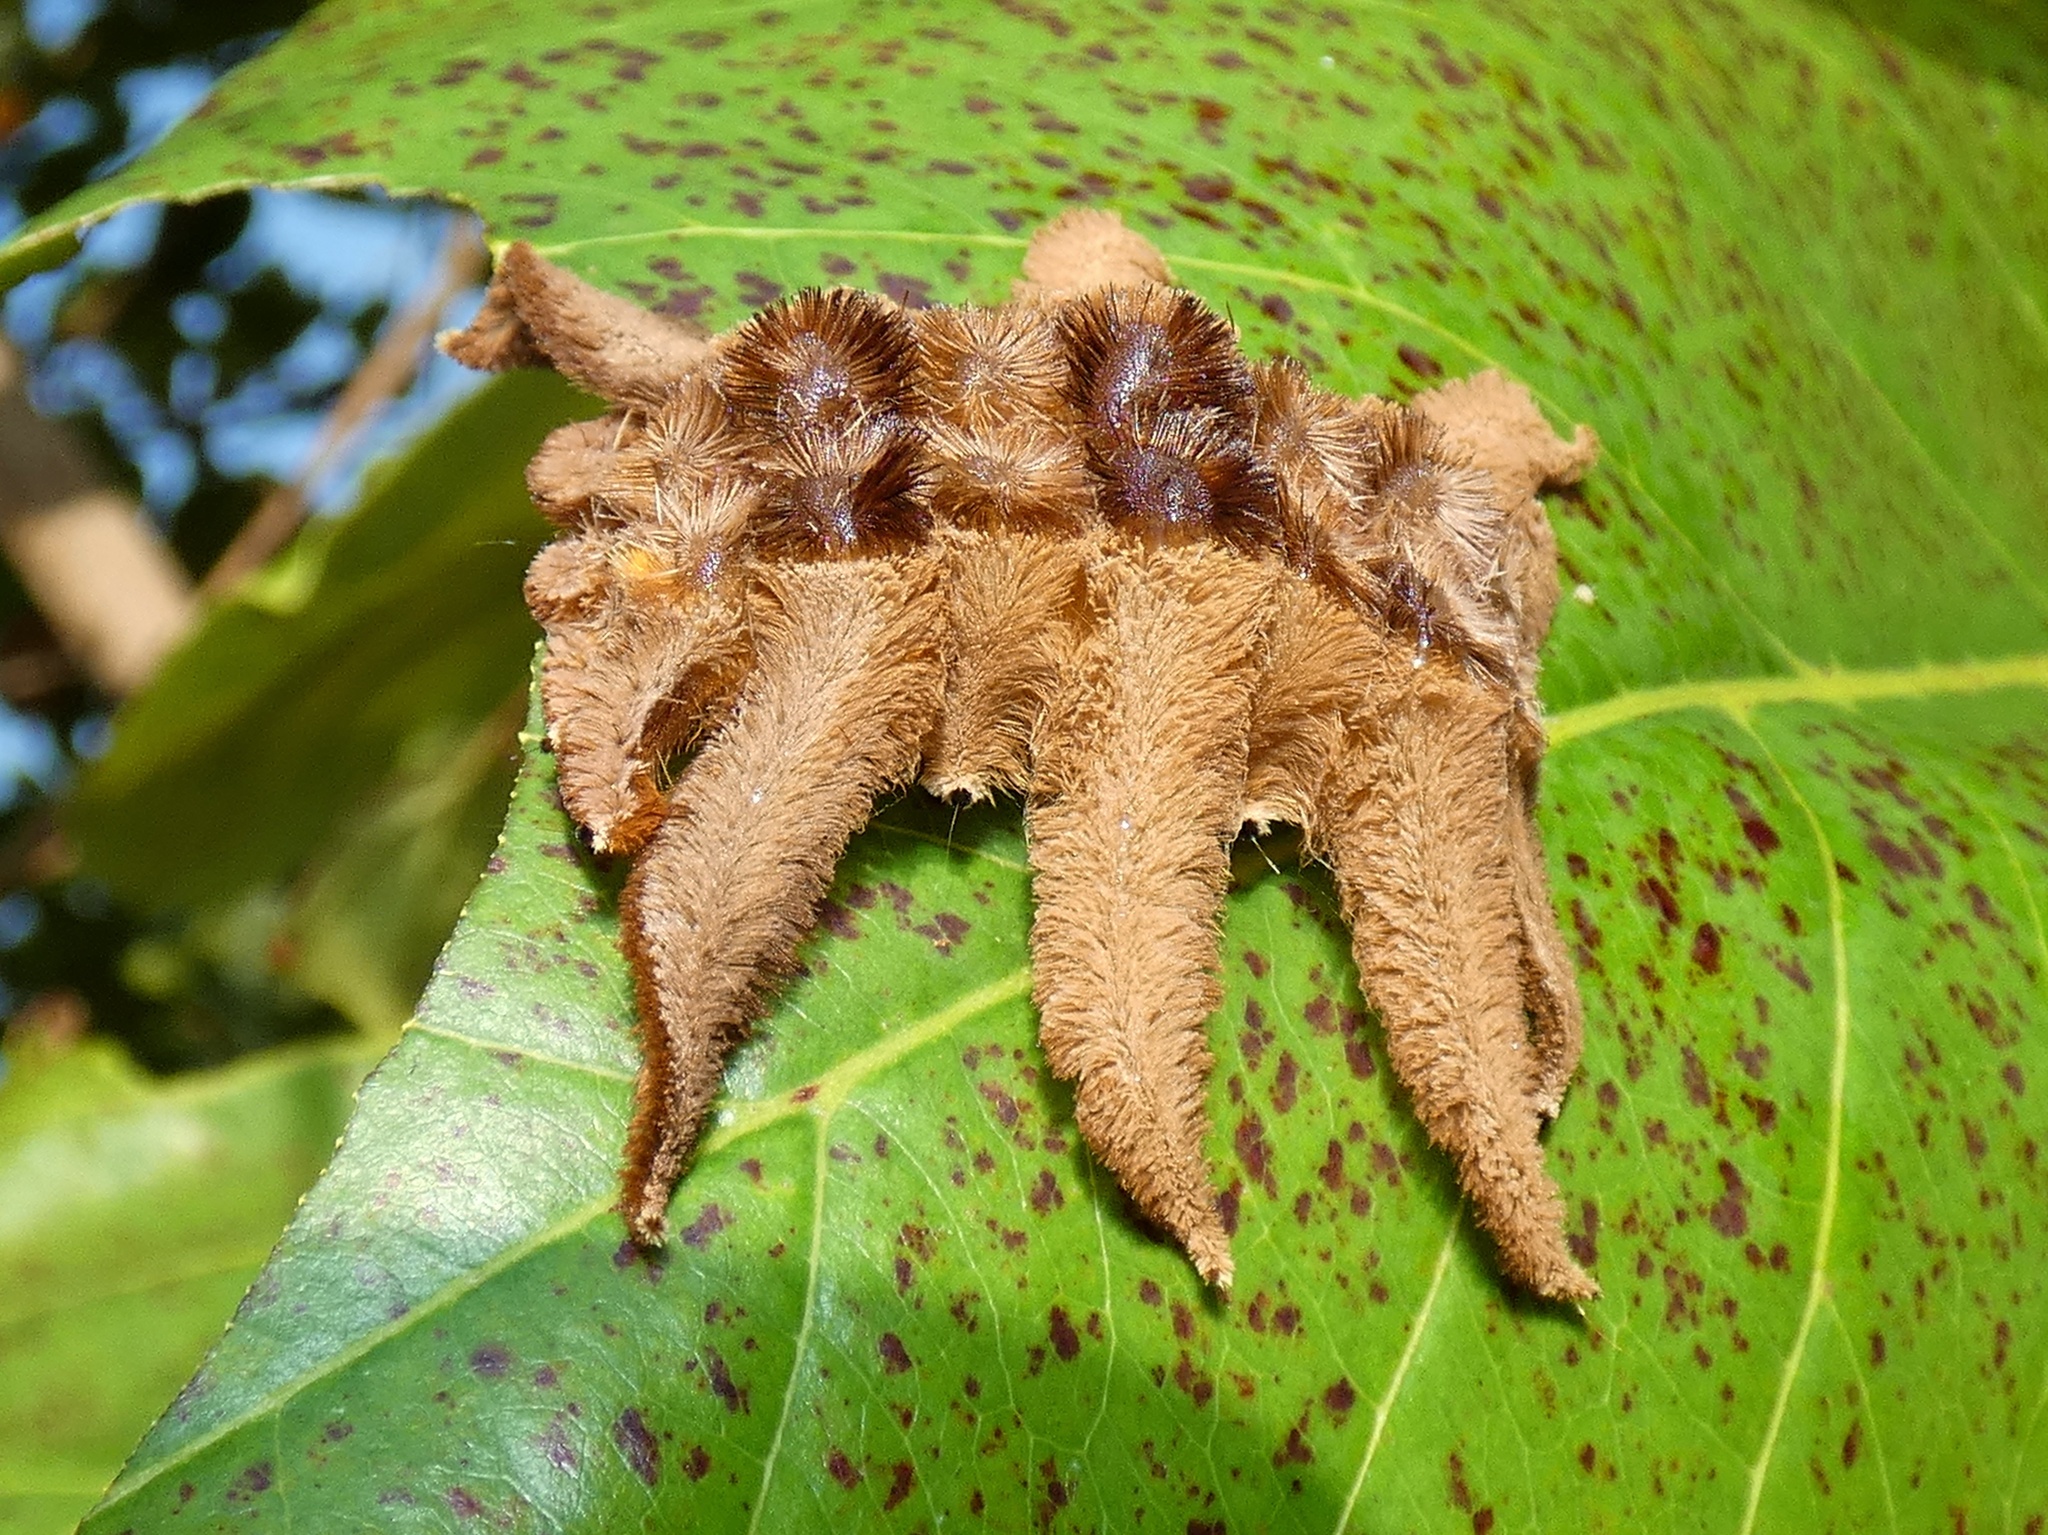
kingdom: Animalia
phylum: Arthropoda
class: Insecta
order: Lepidoptera
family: Limacodidae
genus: Phobetron
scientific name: Phobetron hipparchia
